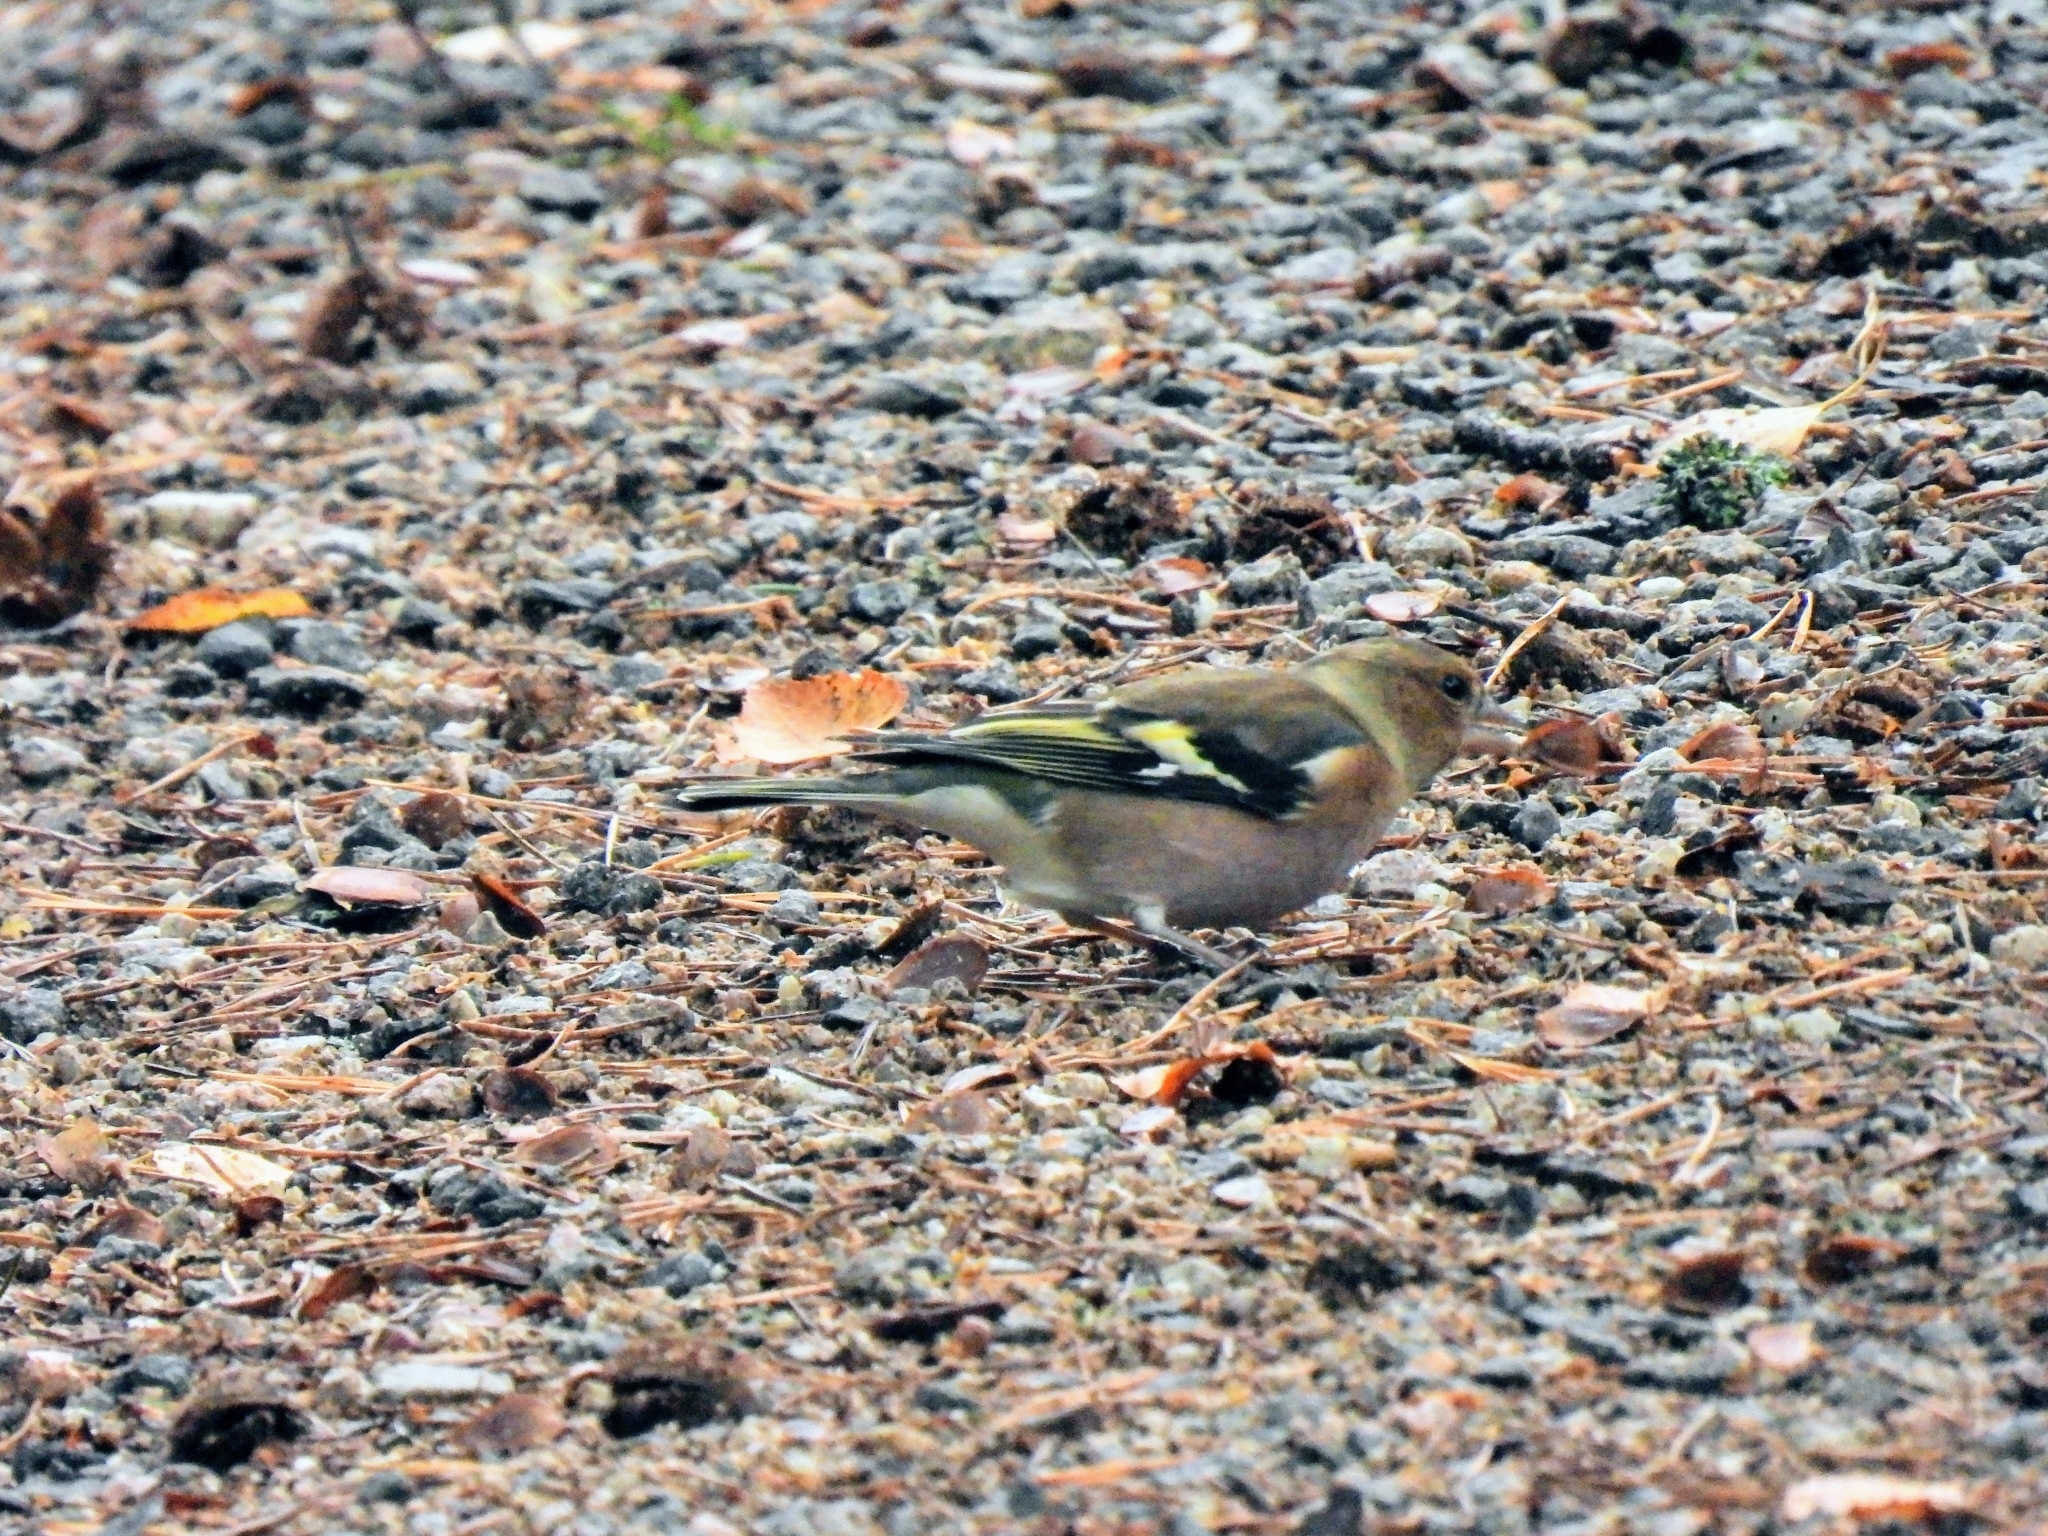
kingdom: Animalia
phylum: Chordata
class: Aves
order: Passeriformes
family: Fringillidae
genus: Fringilla
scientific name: Fringilla coelebs
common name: Common chaffinch
